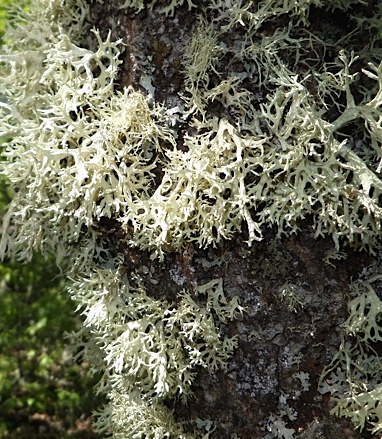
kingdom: Fungi
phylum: Ascomycota
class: Lecanoromycetes
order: Lecanorales
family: Parmeliaceae
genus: Evernia
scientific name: Evernia prunastri
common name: Oak moss
